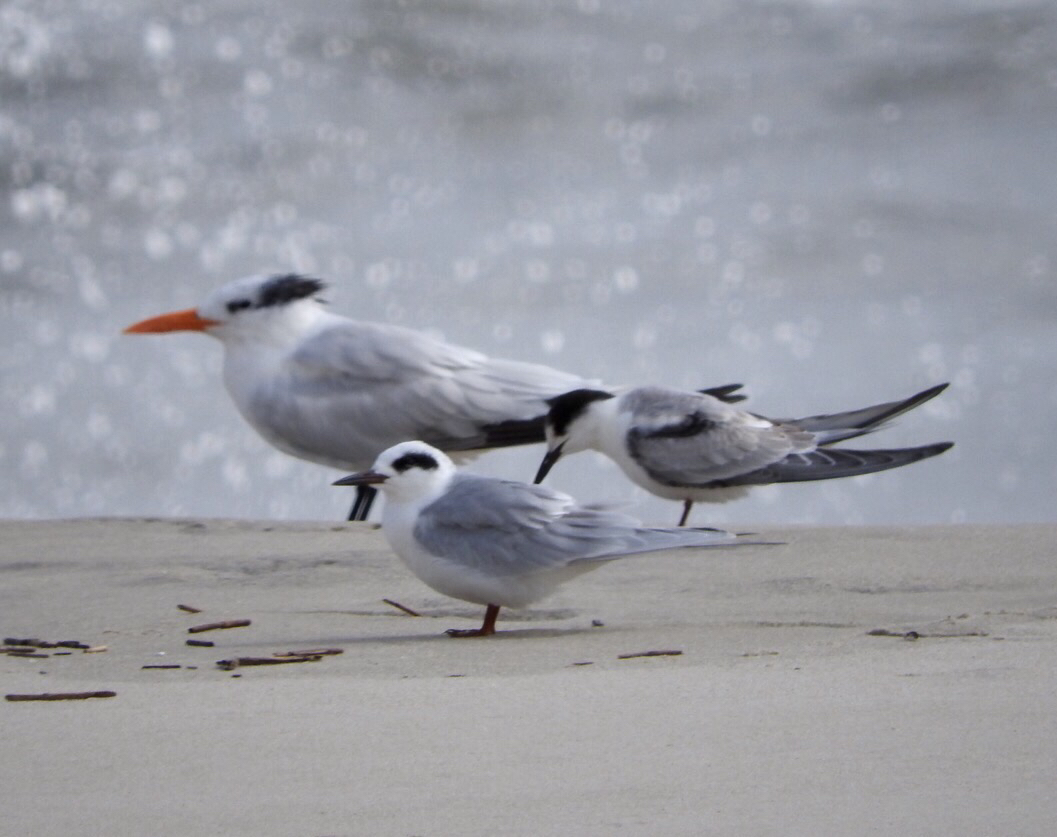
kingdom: Animalia
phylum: Chordata
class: Aves
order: Charadriiformes
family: Laridae
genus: Sterna
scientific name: Sterna forsteri
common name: Forster's tern
